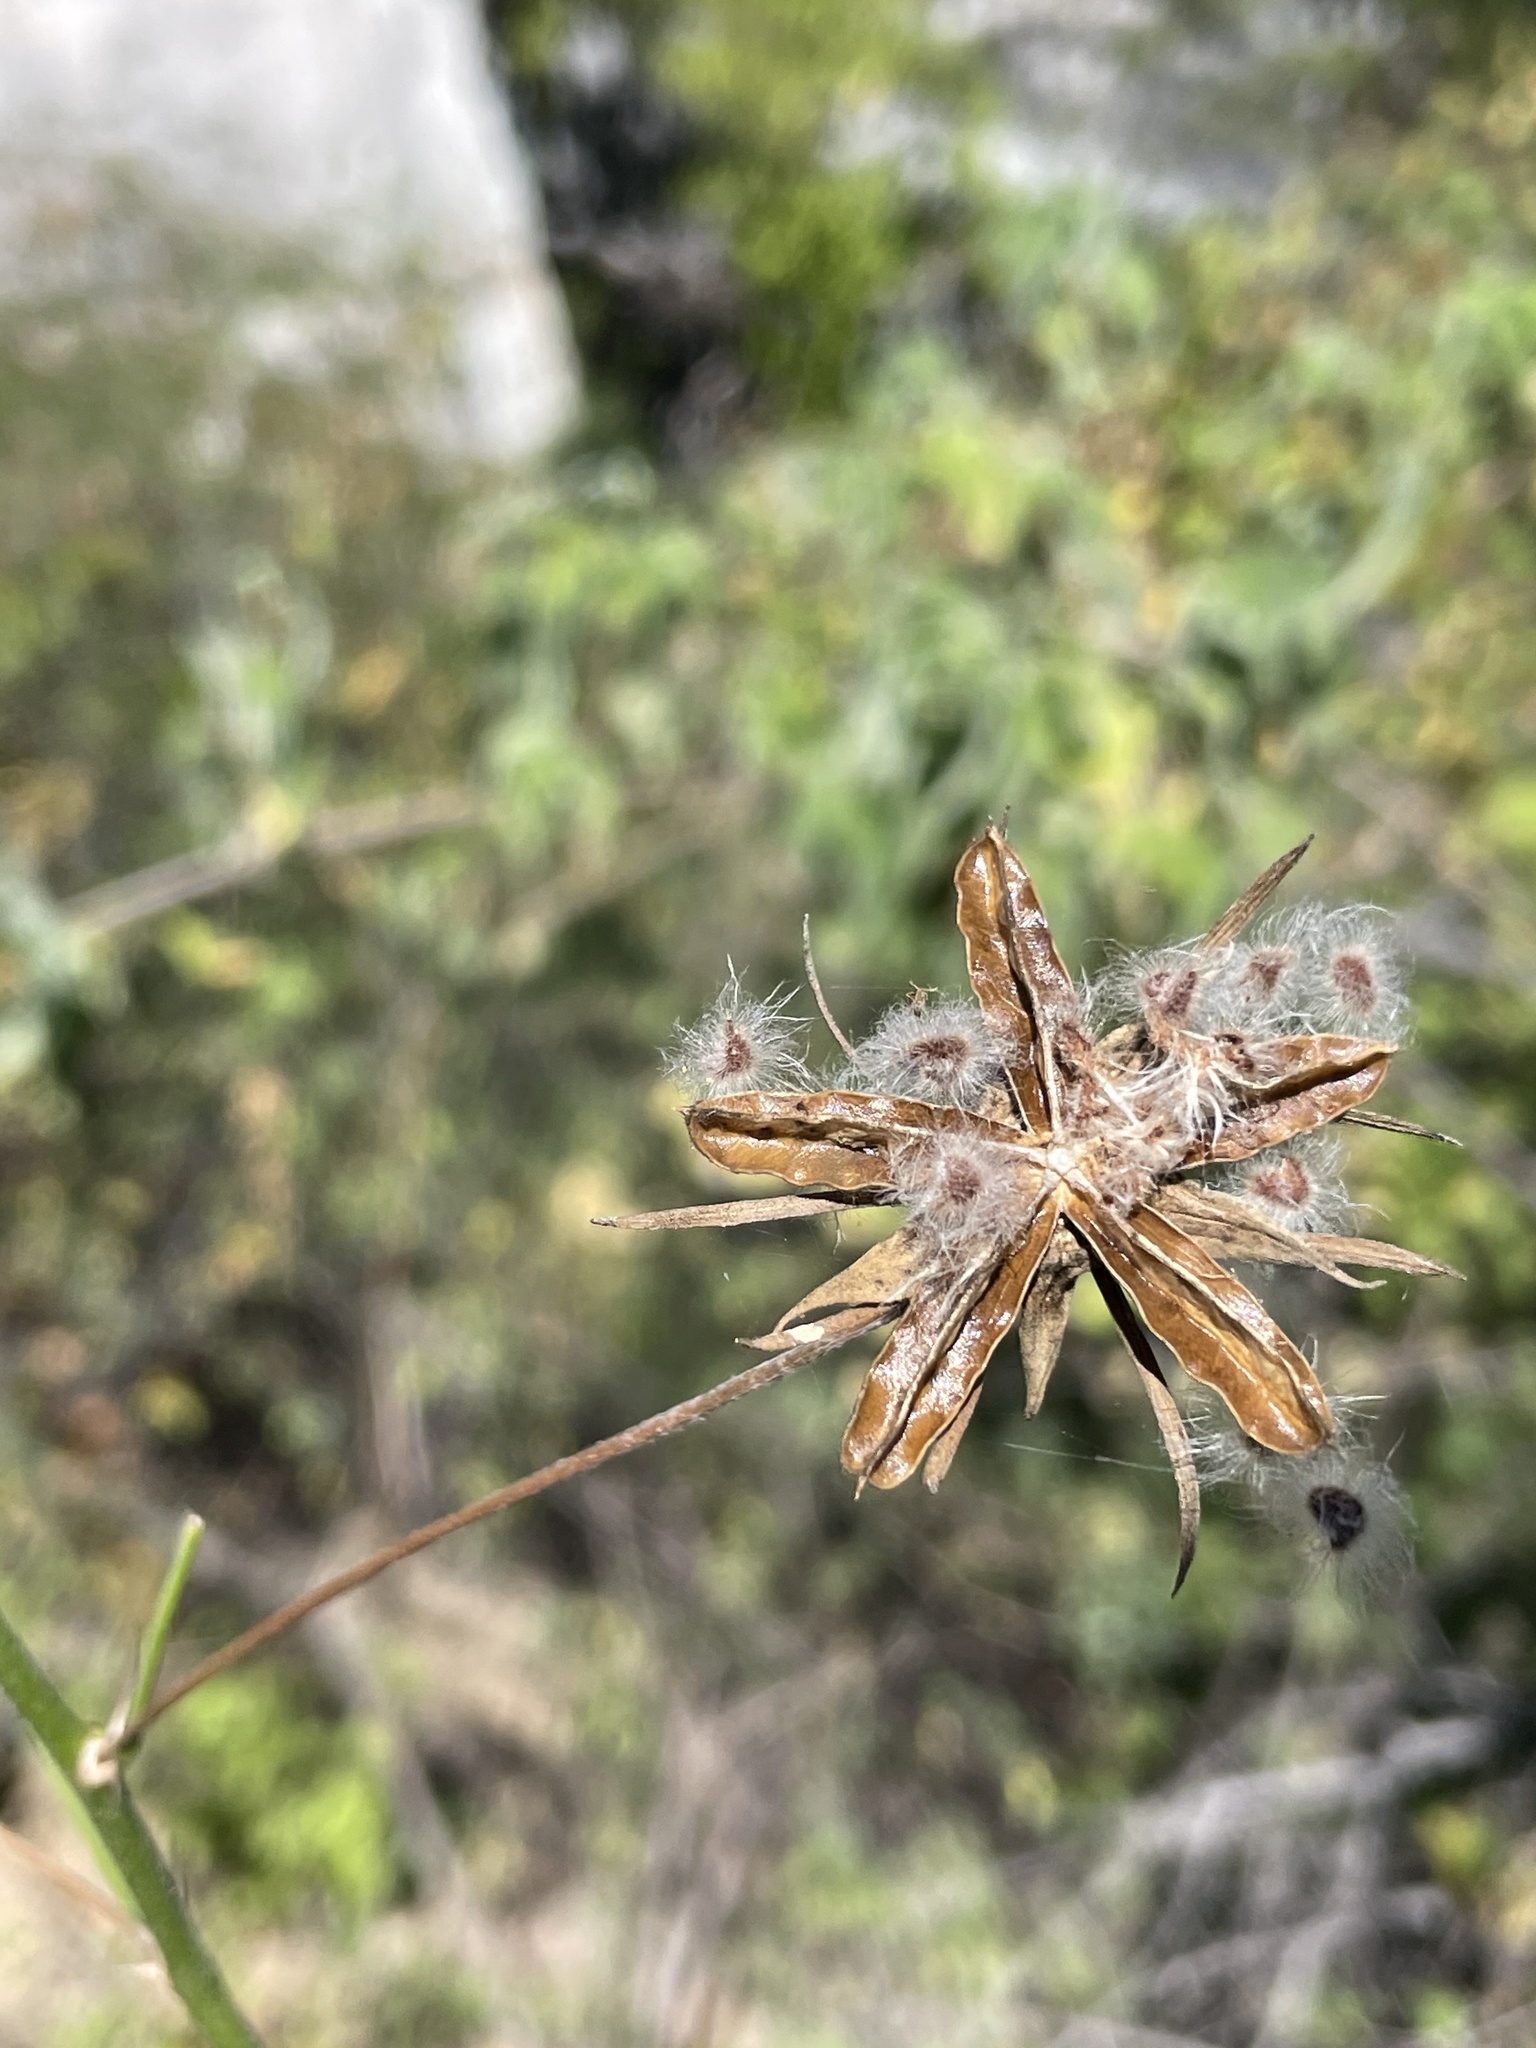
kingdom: Plantae
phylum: Tracheophyta
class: Magnoliopsida
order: Malvales
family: Malvaceae
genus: Hibiscus
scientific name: Hibiscus ribifolius
